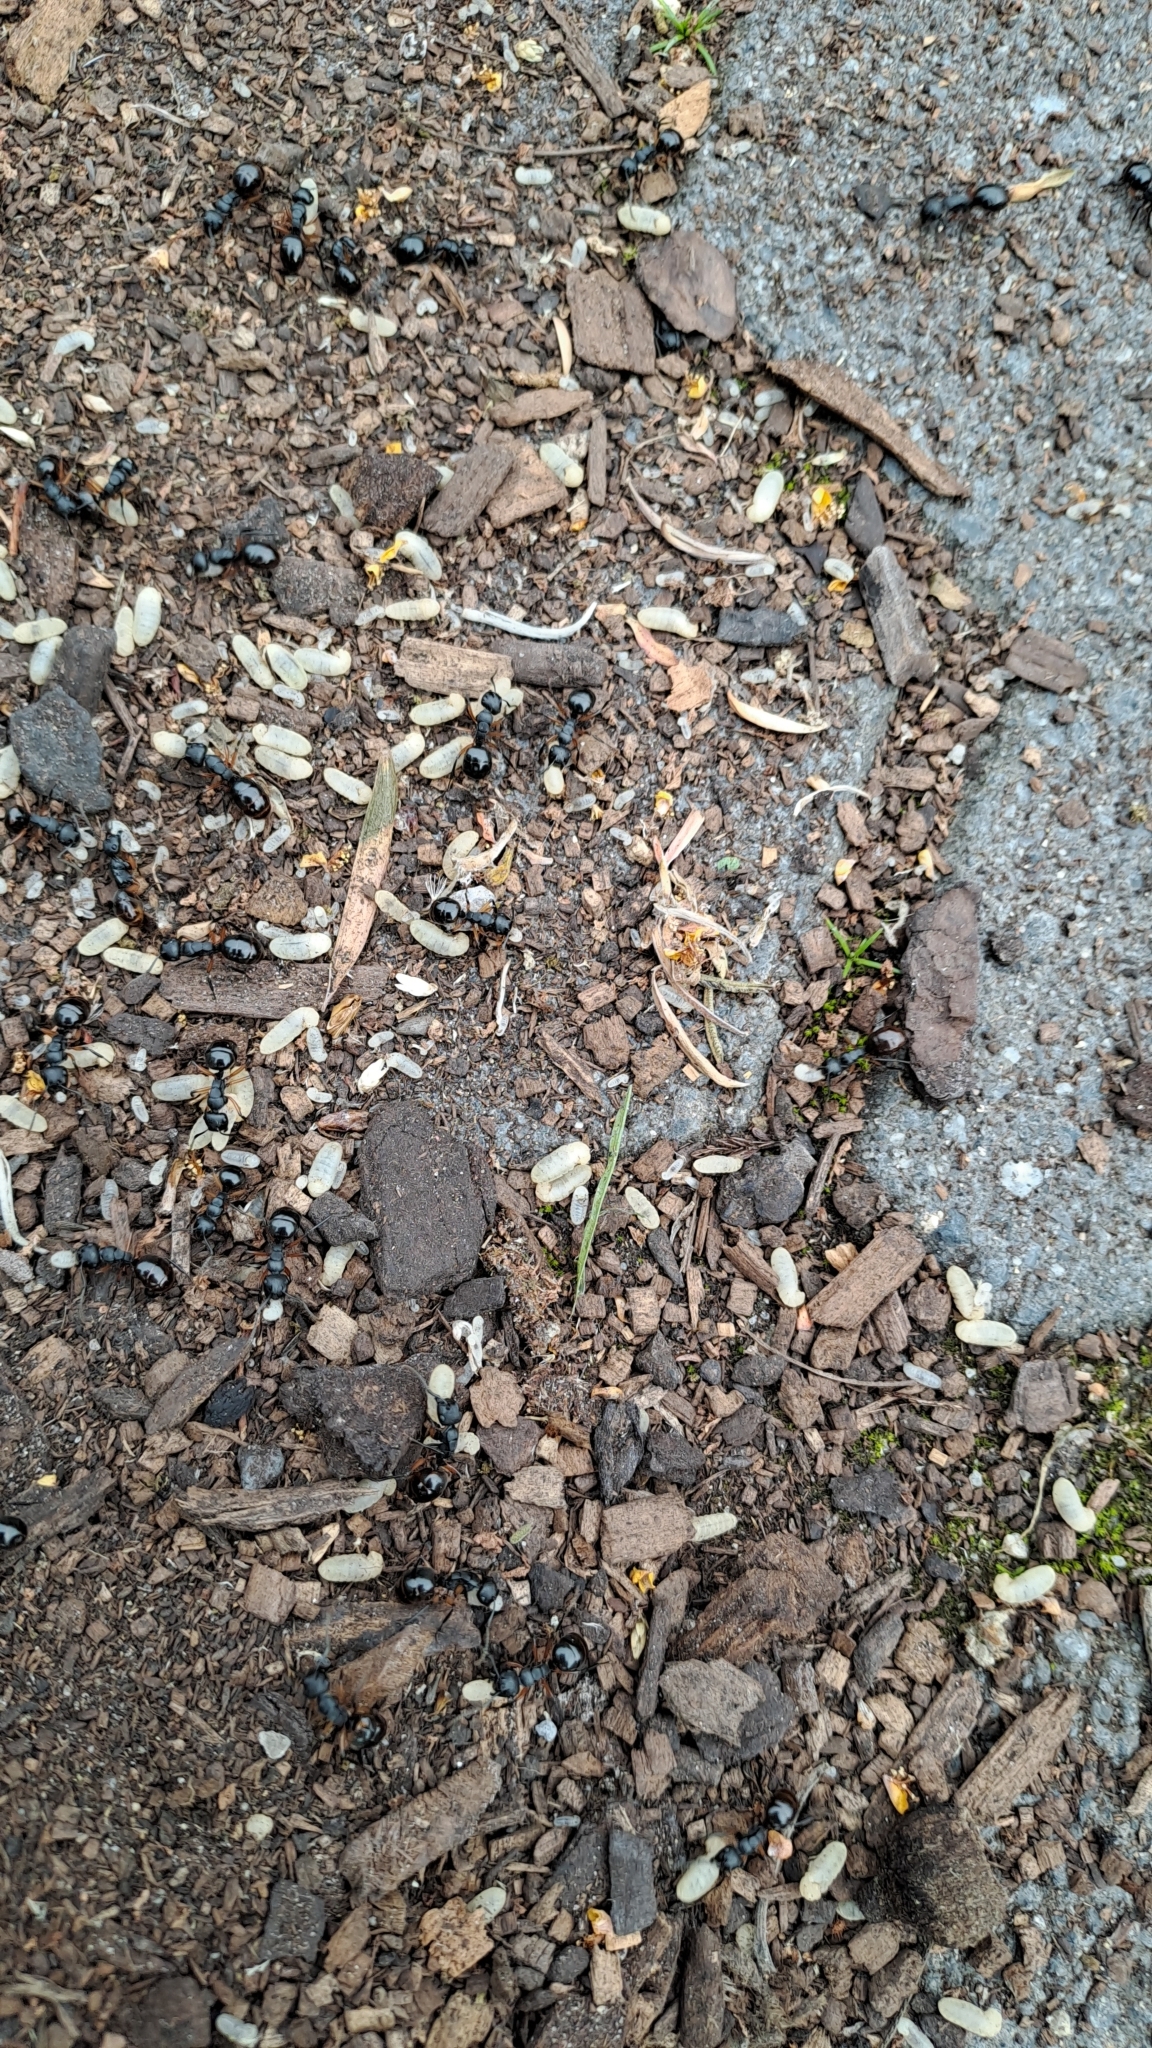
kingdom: Animalia
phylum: Arthropoda
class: Insecta
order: Hymenoptera
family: Formicidae
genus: Polyrhachis
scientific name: Polyrhachis femorata
